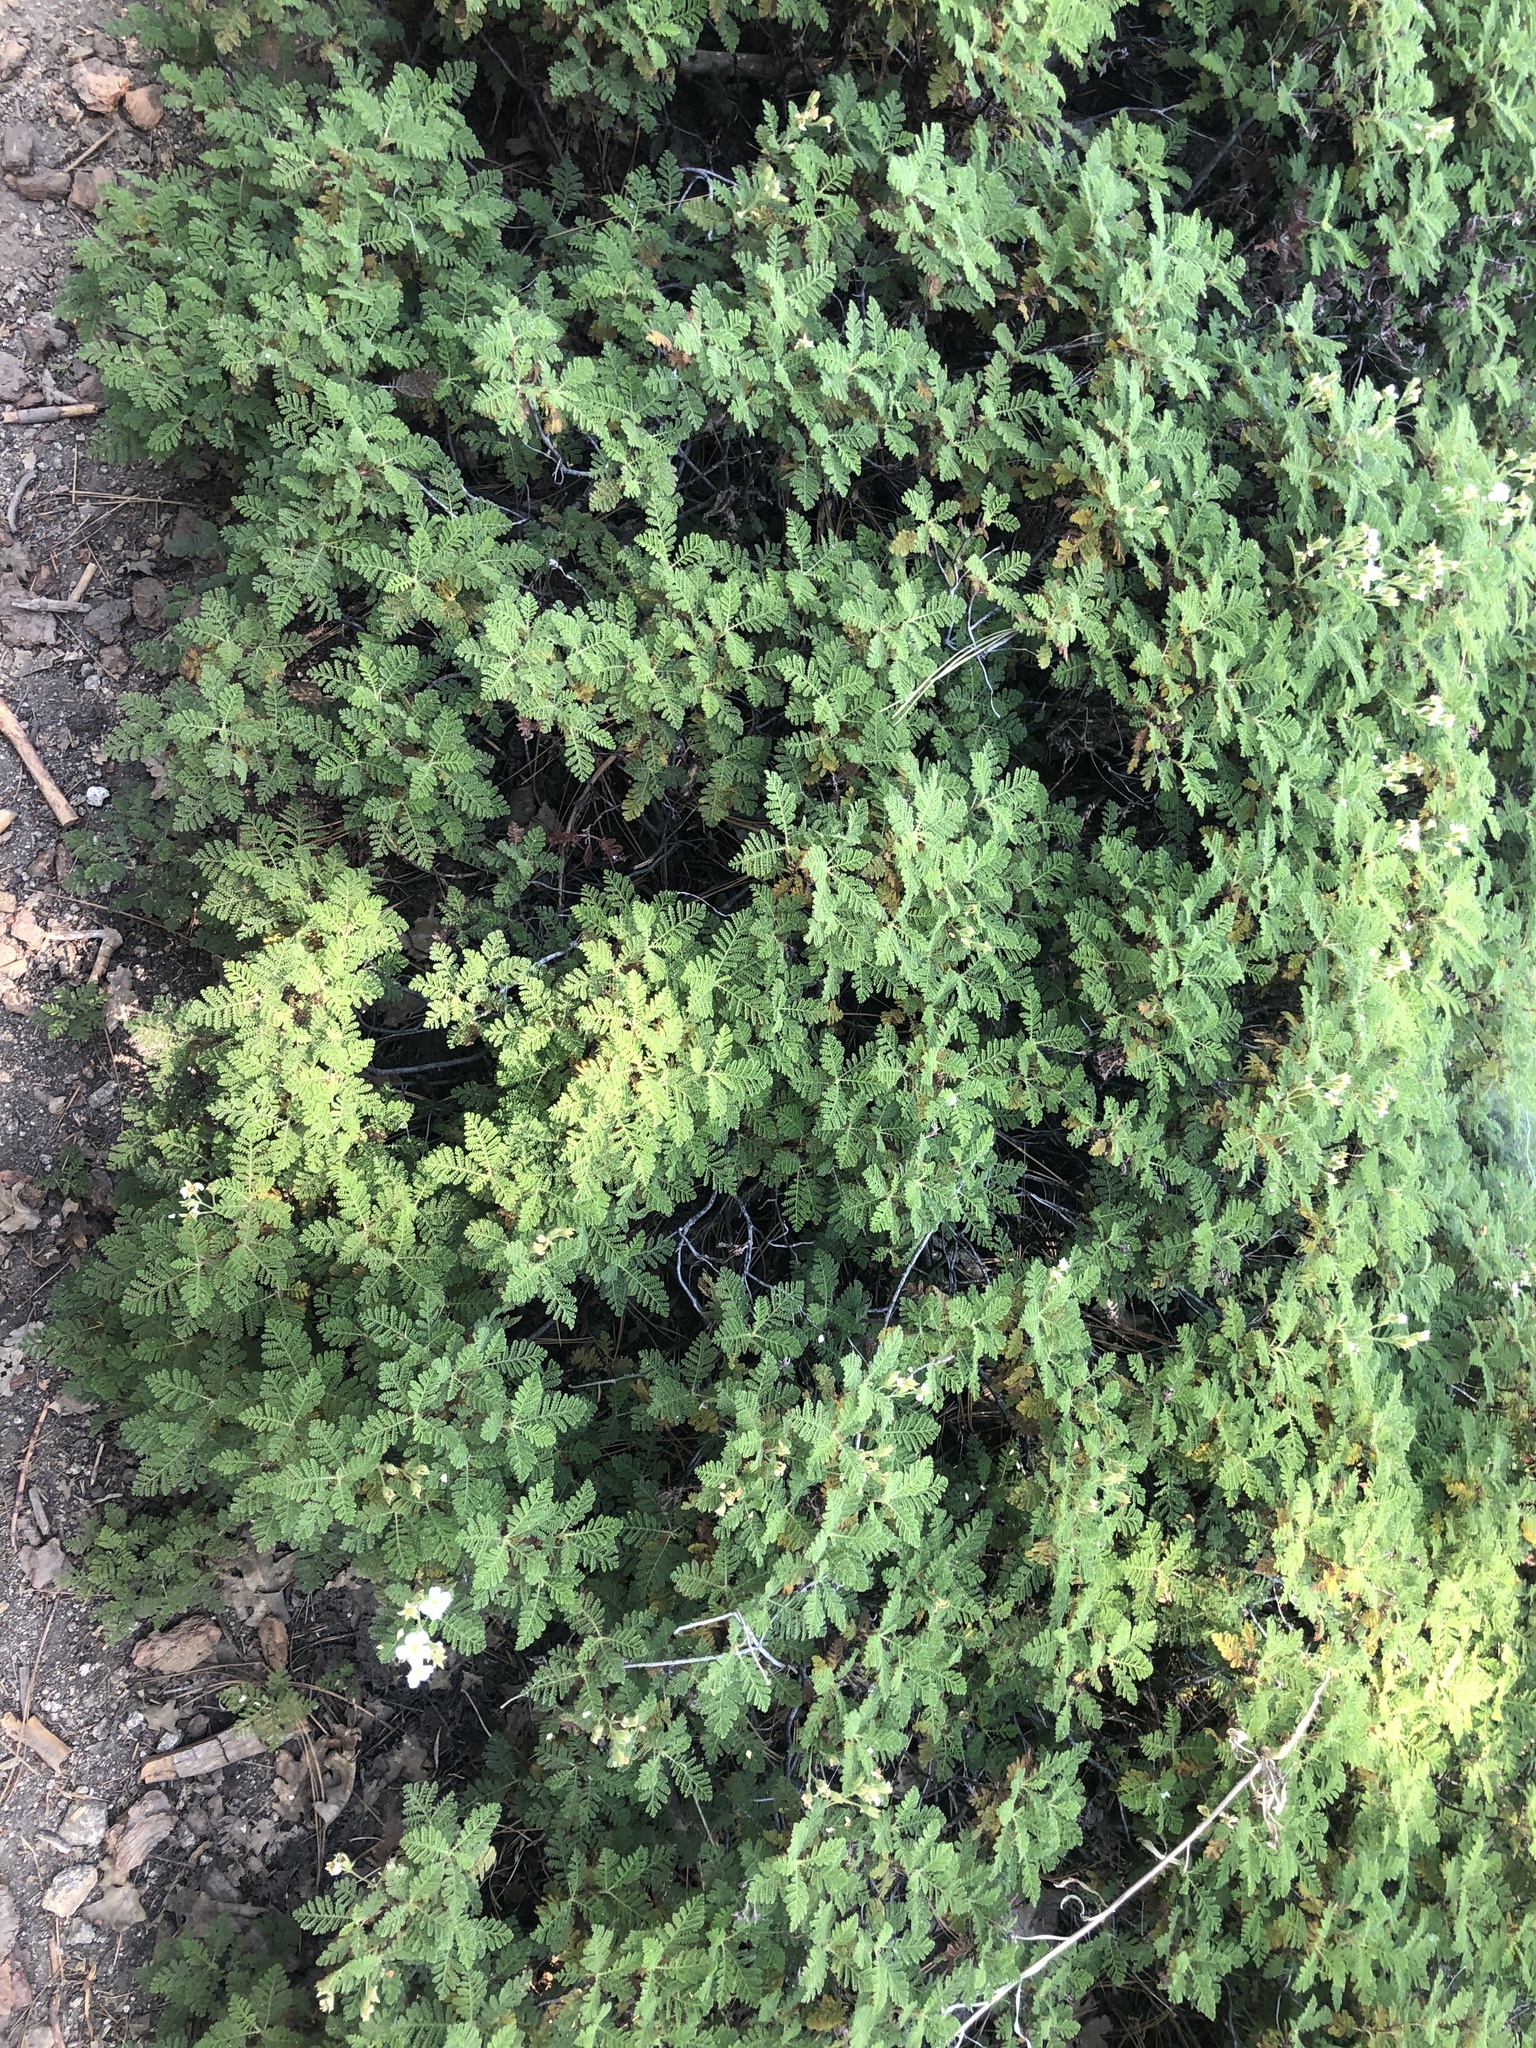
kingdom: Plantae
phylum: Tracheophyta
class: Magnoliopsida
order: Rosales
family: Rosaceae
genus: Chamaebatia
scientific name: Chamaebatia foliolosa
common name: Mountain misery
